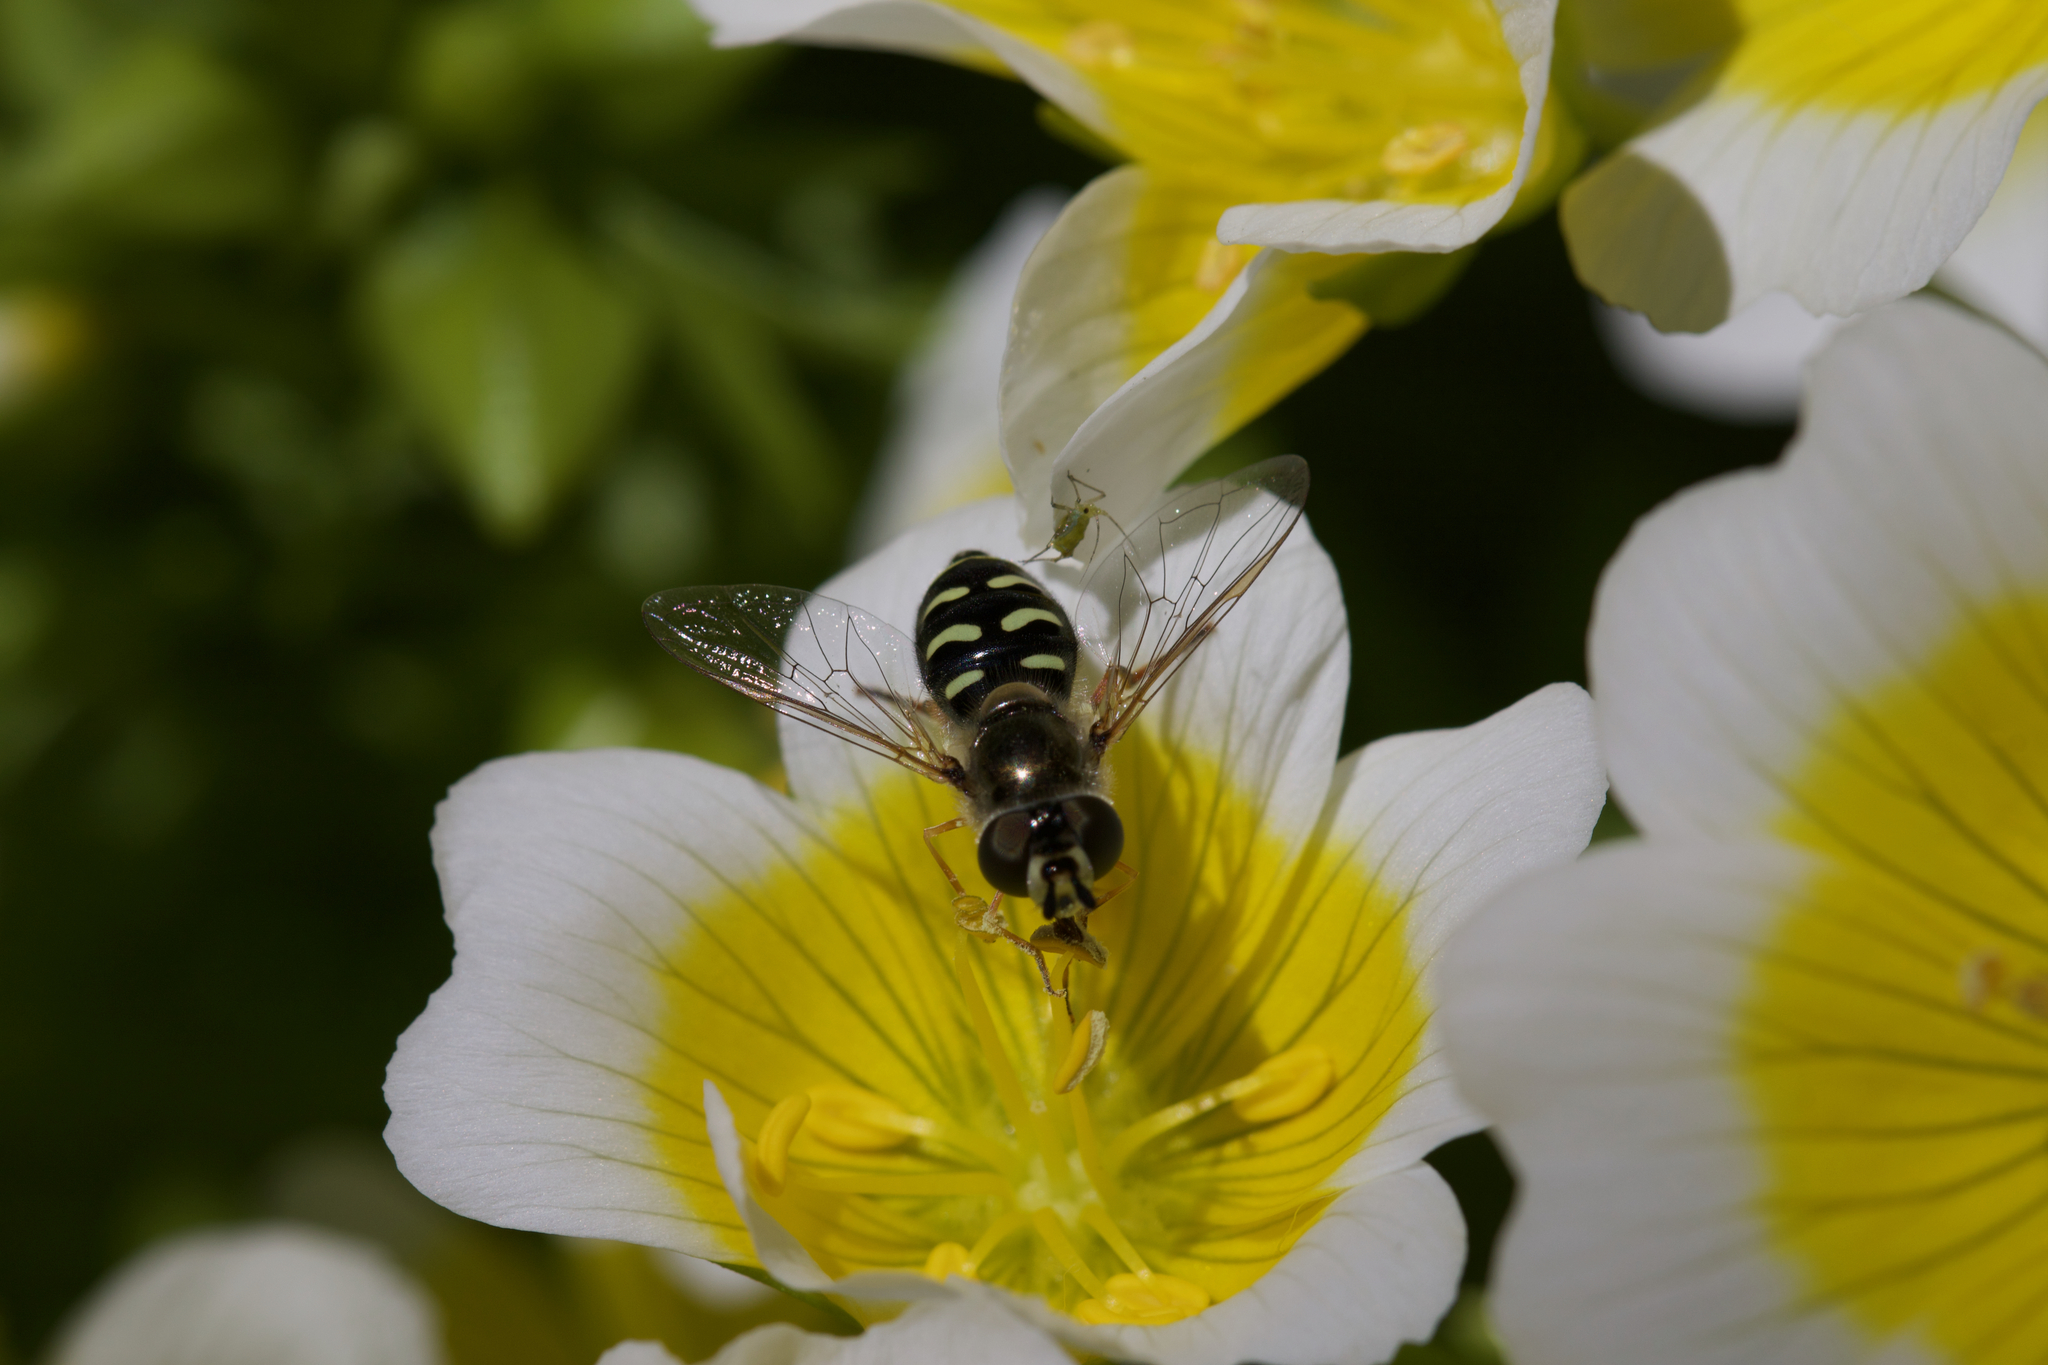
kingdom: Animalia
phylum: Arthropoda
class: Insecta
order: Diptera
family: Syrphidae
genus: Eupeodes
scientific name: Eupeodes volucris
